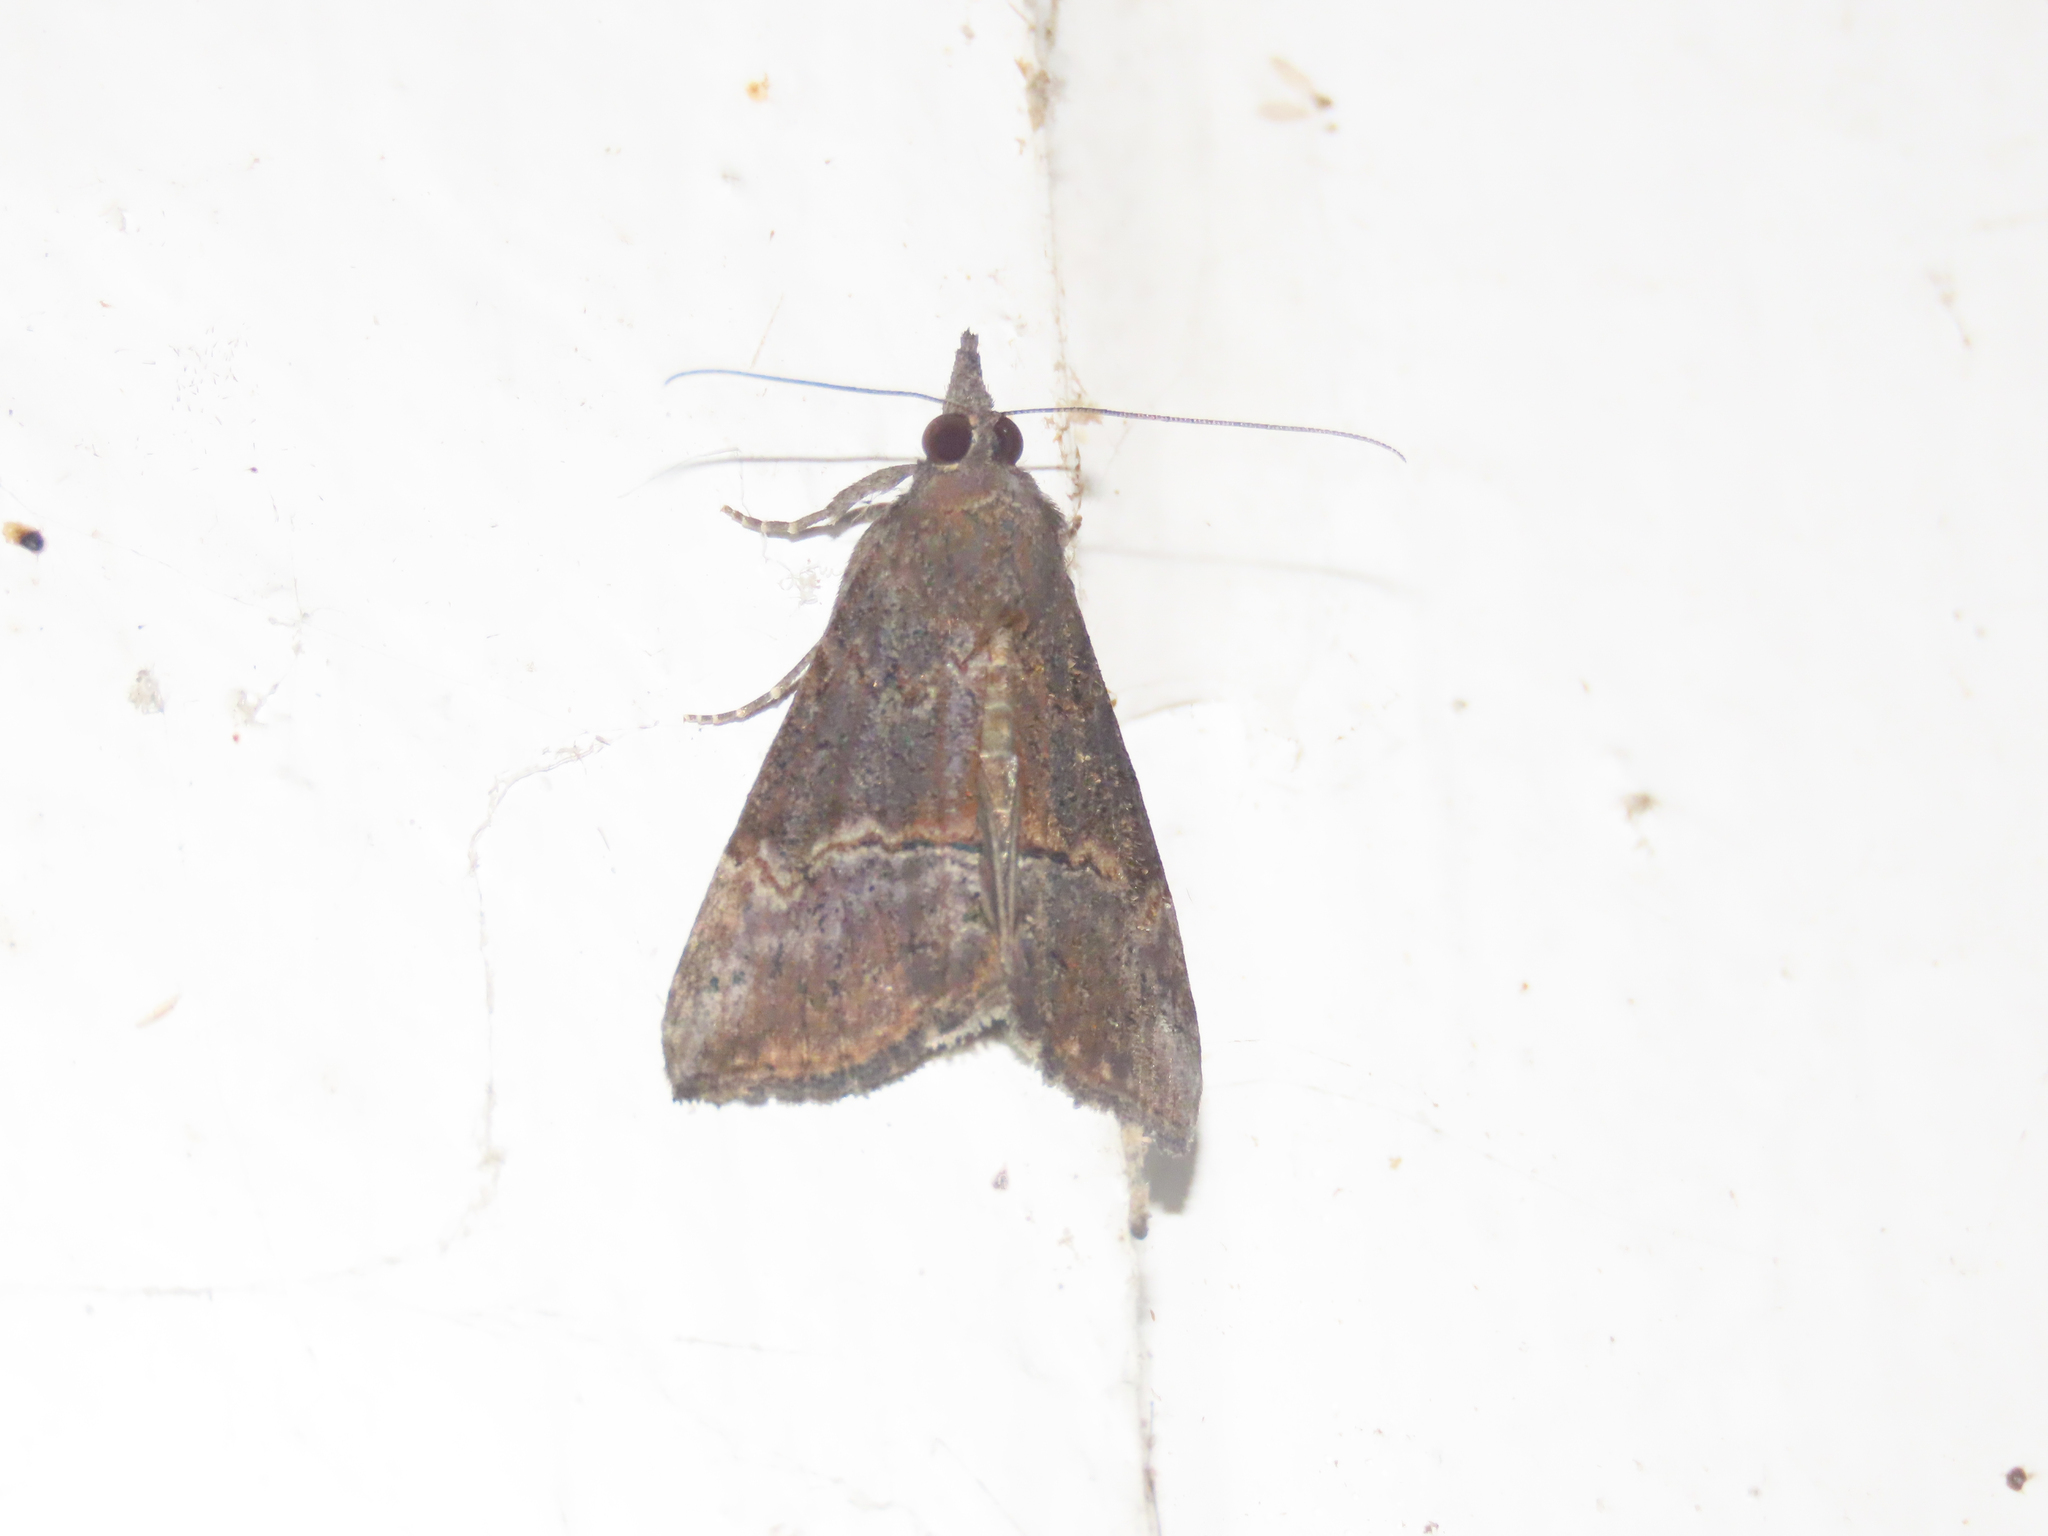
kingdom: Animalia
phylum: Arthropoda
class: Insecta
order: Lepidoptera
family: Erebidae
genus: Hypena
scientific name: Hypena scabra
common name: Green cloverworm
